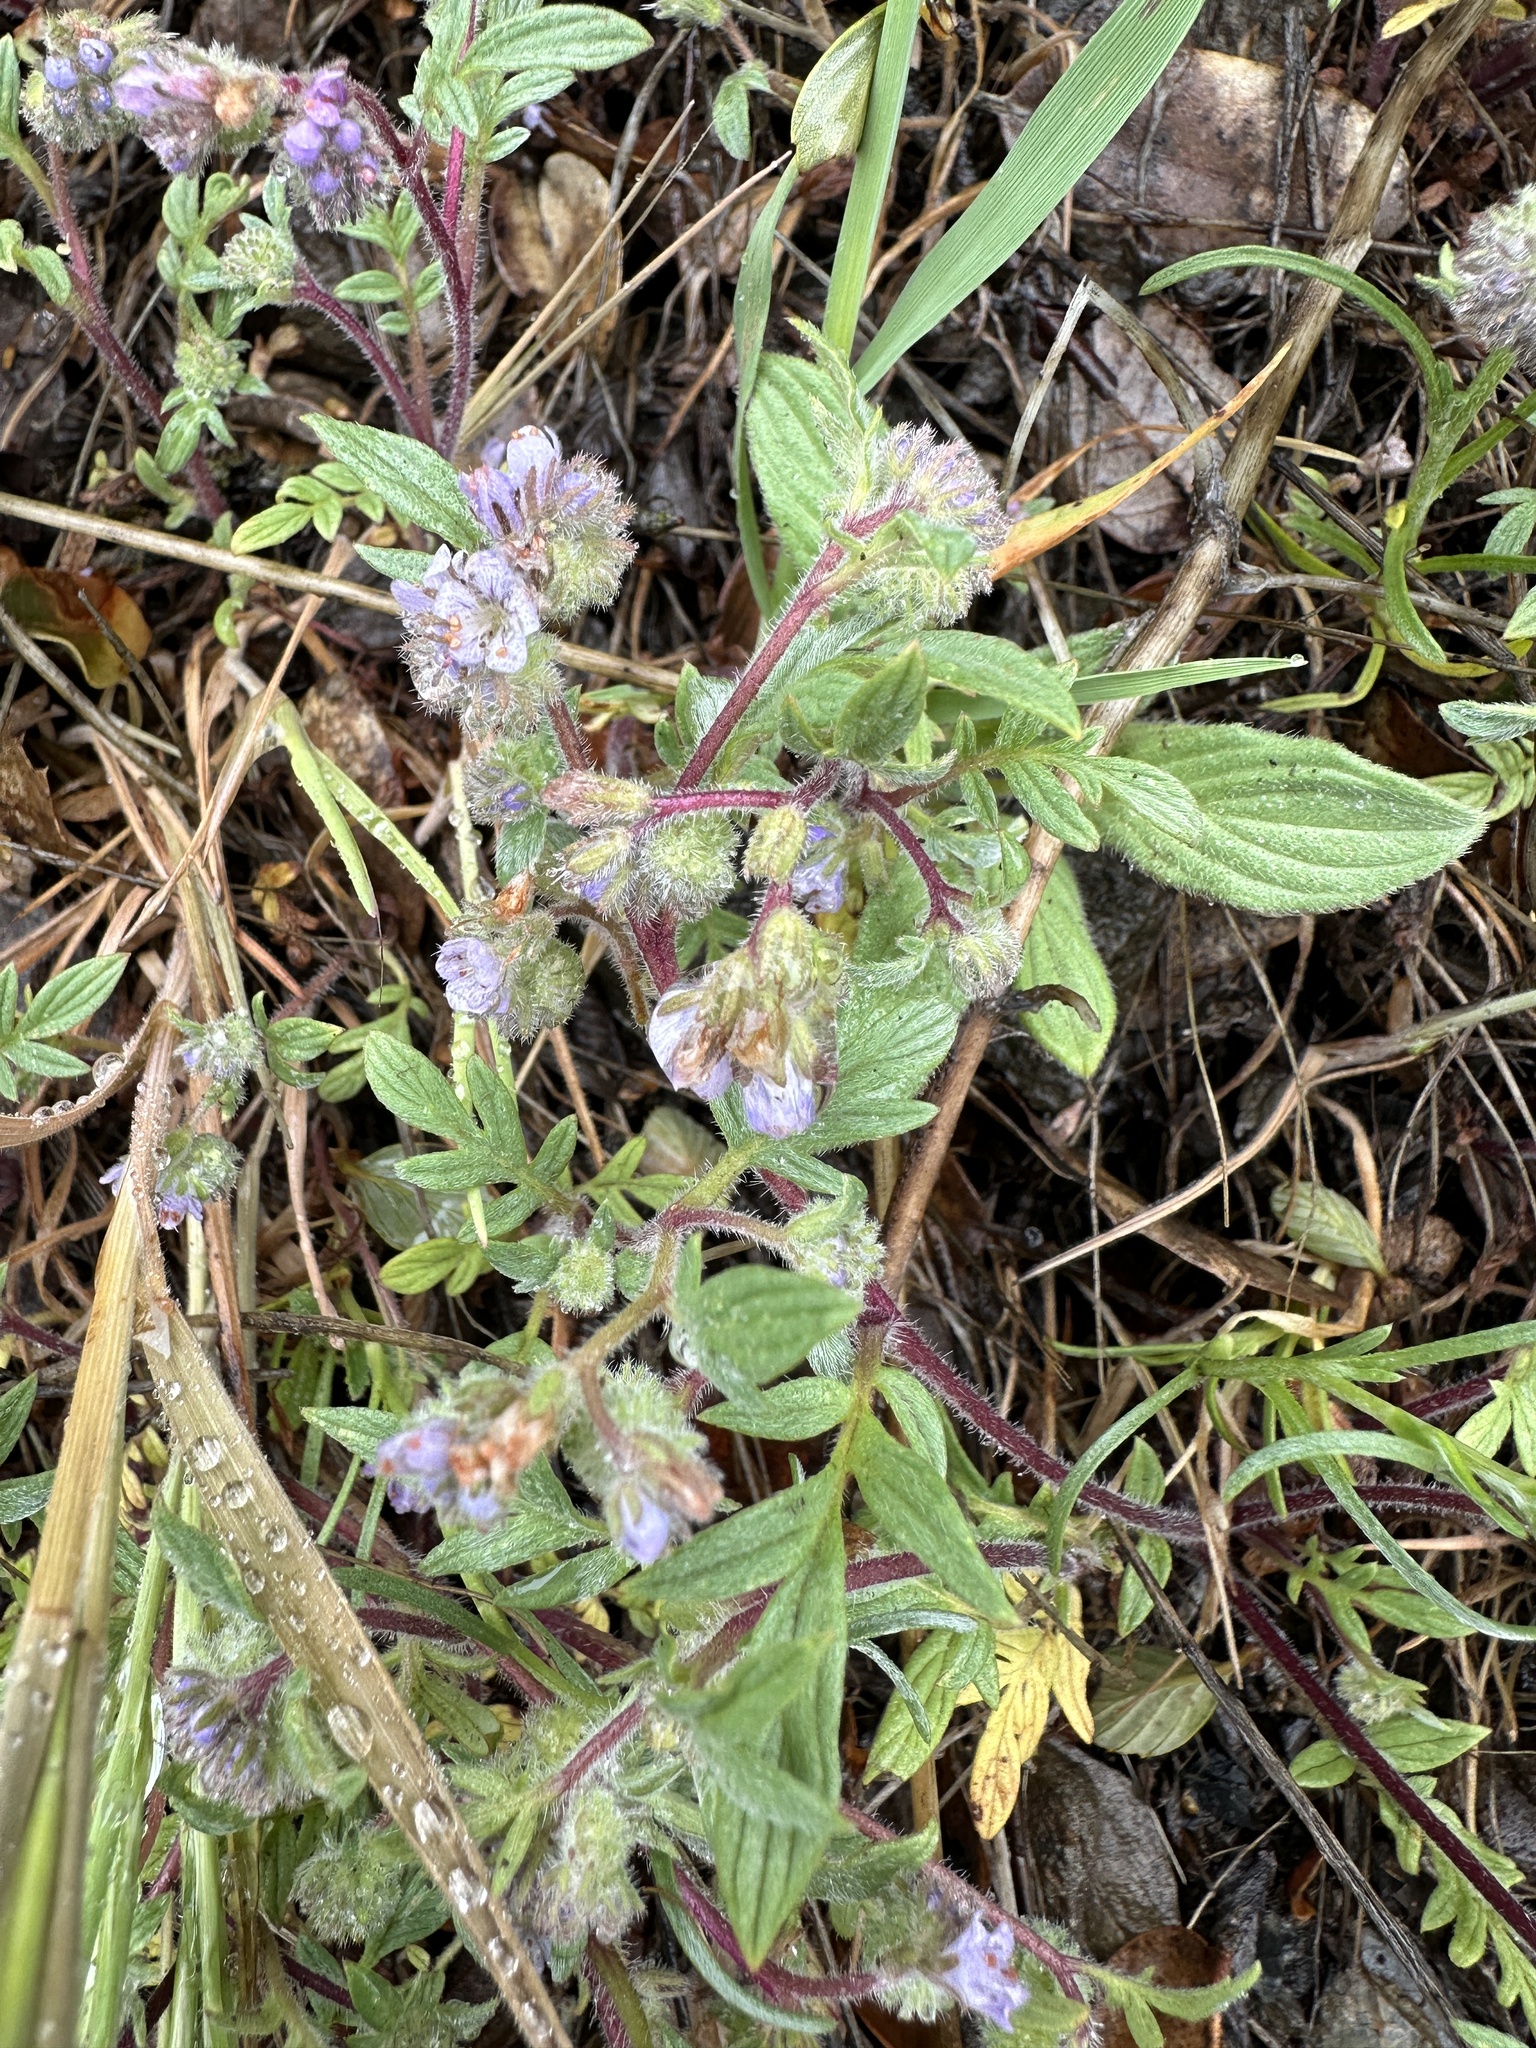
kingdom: Plantae
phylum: Tracheophyta
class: Magnoliopsida
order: Boraginales
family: Hydrophyllaceae
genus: Phacelia
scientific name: Phacelia breweri
